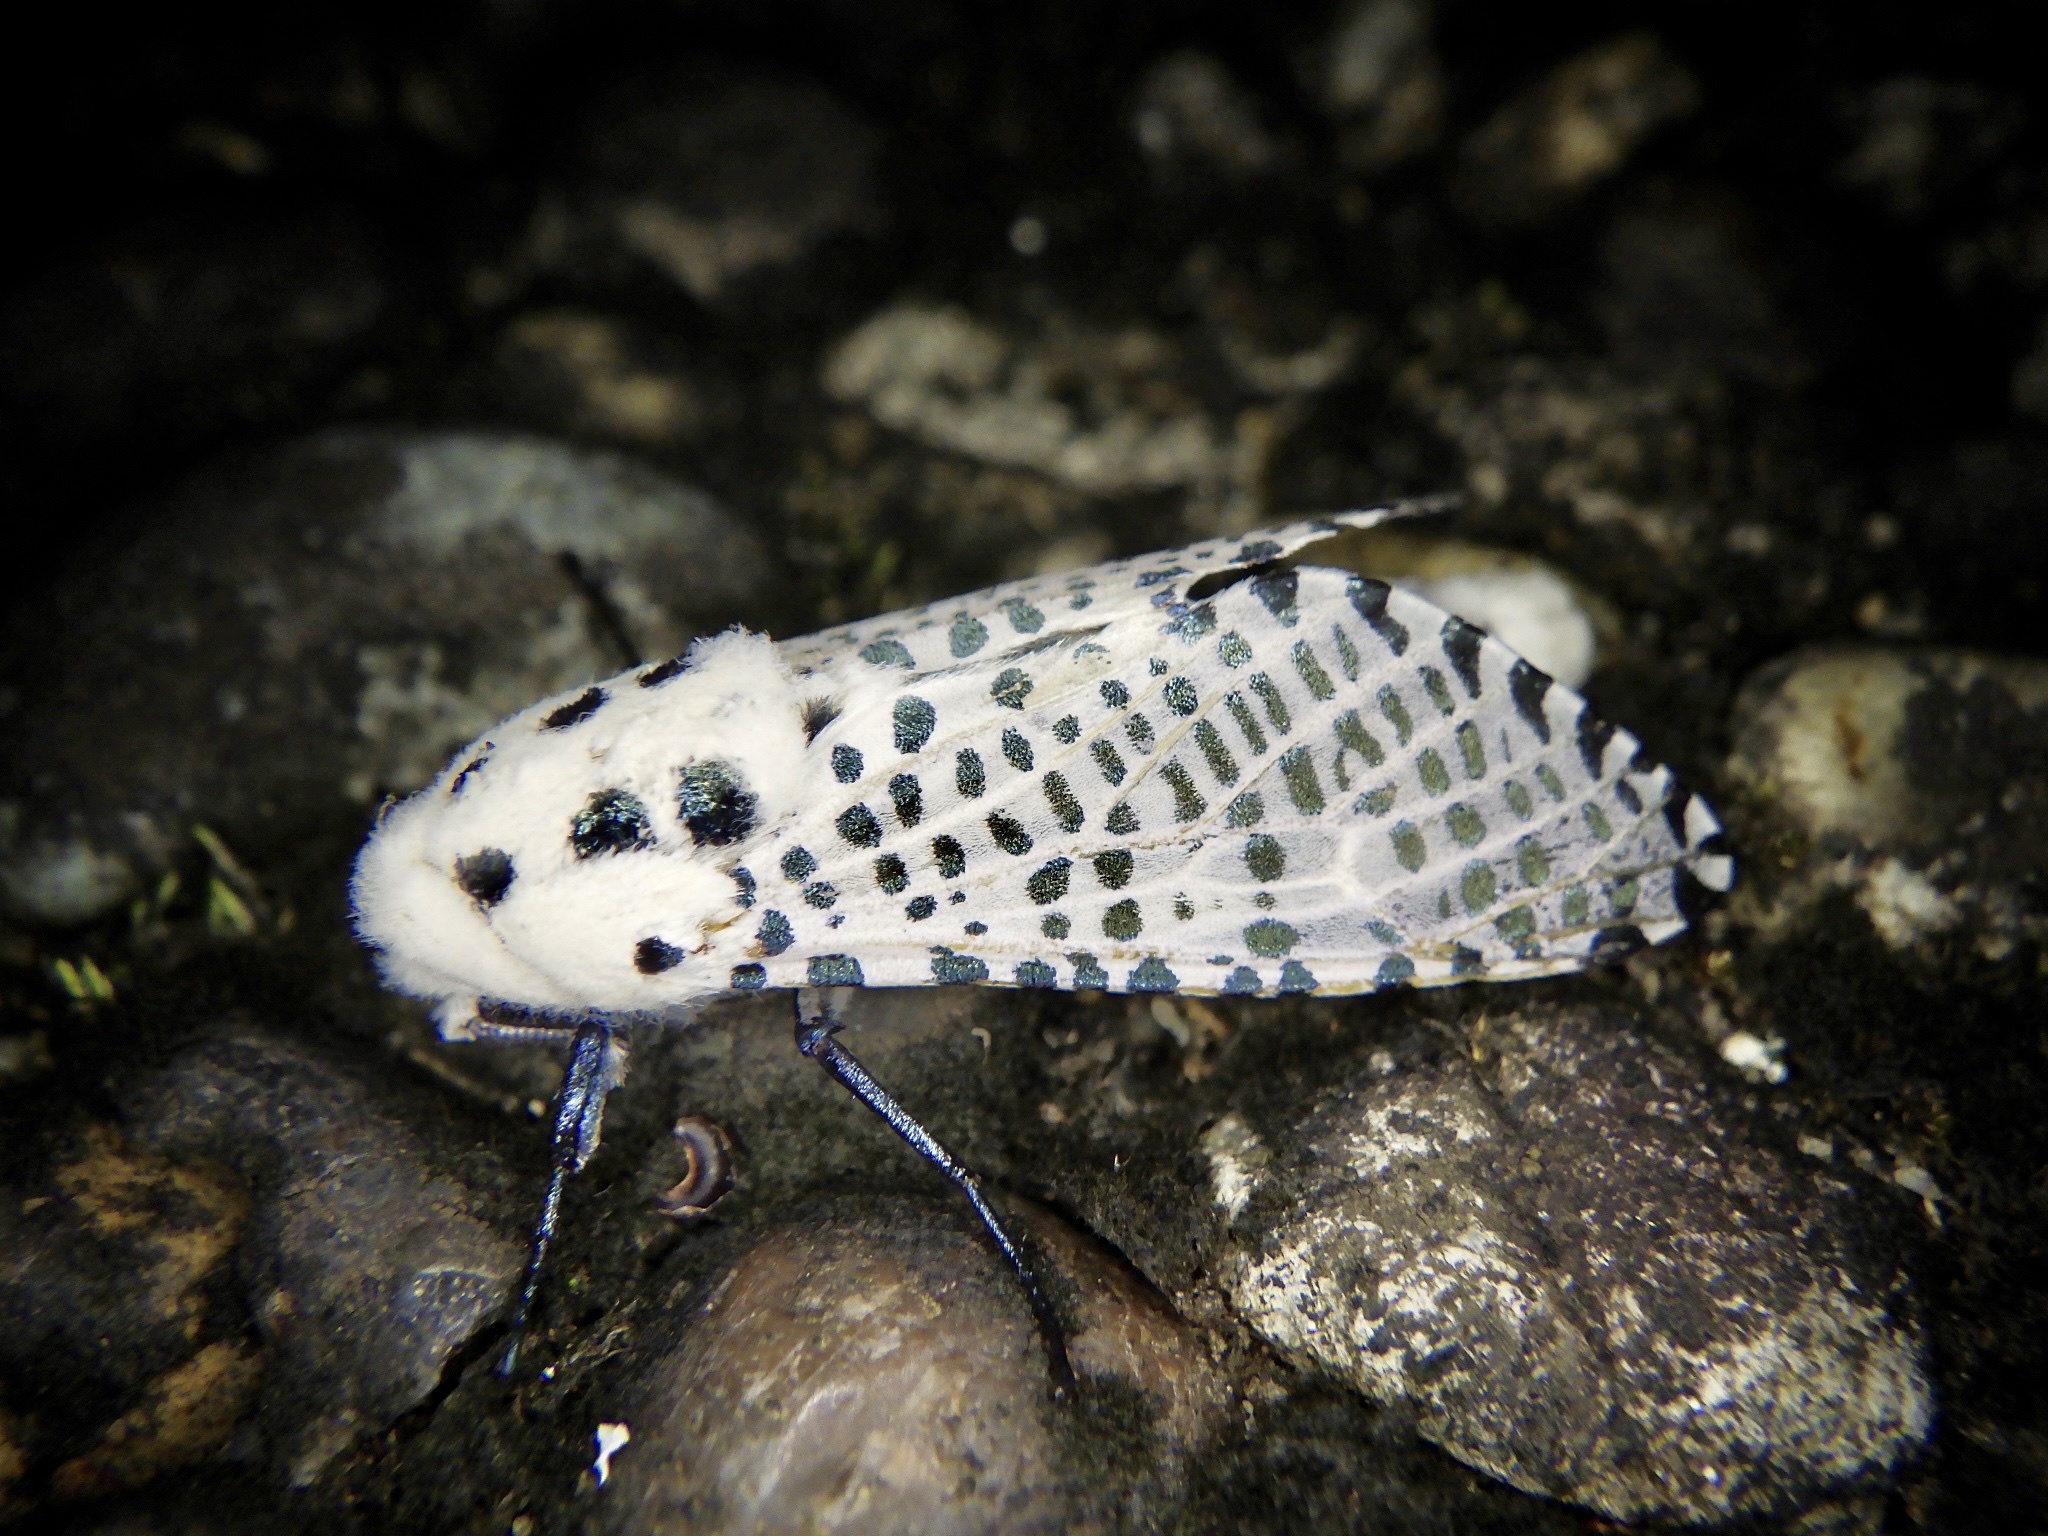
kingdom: Animalia
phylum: Arthropoda
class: Insecta
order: Lepidoptera
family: Cossidae
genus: Zeuzera
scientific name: Zeuzera multistrigata
